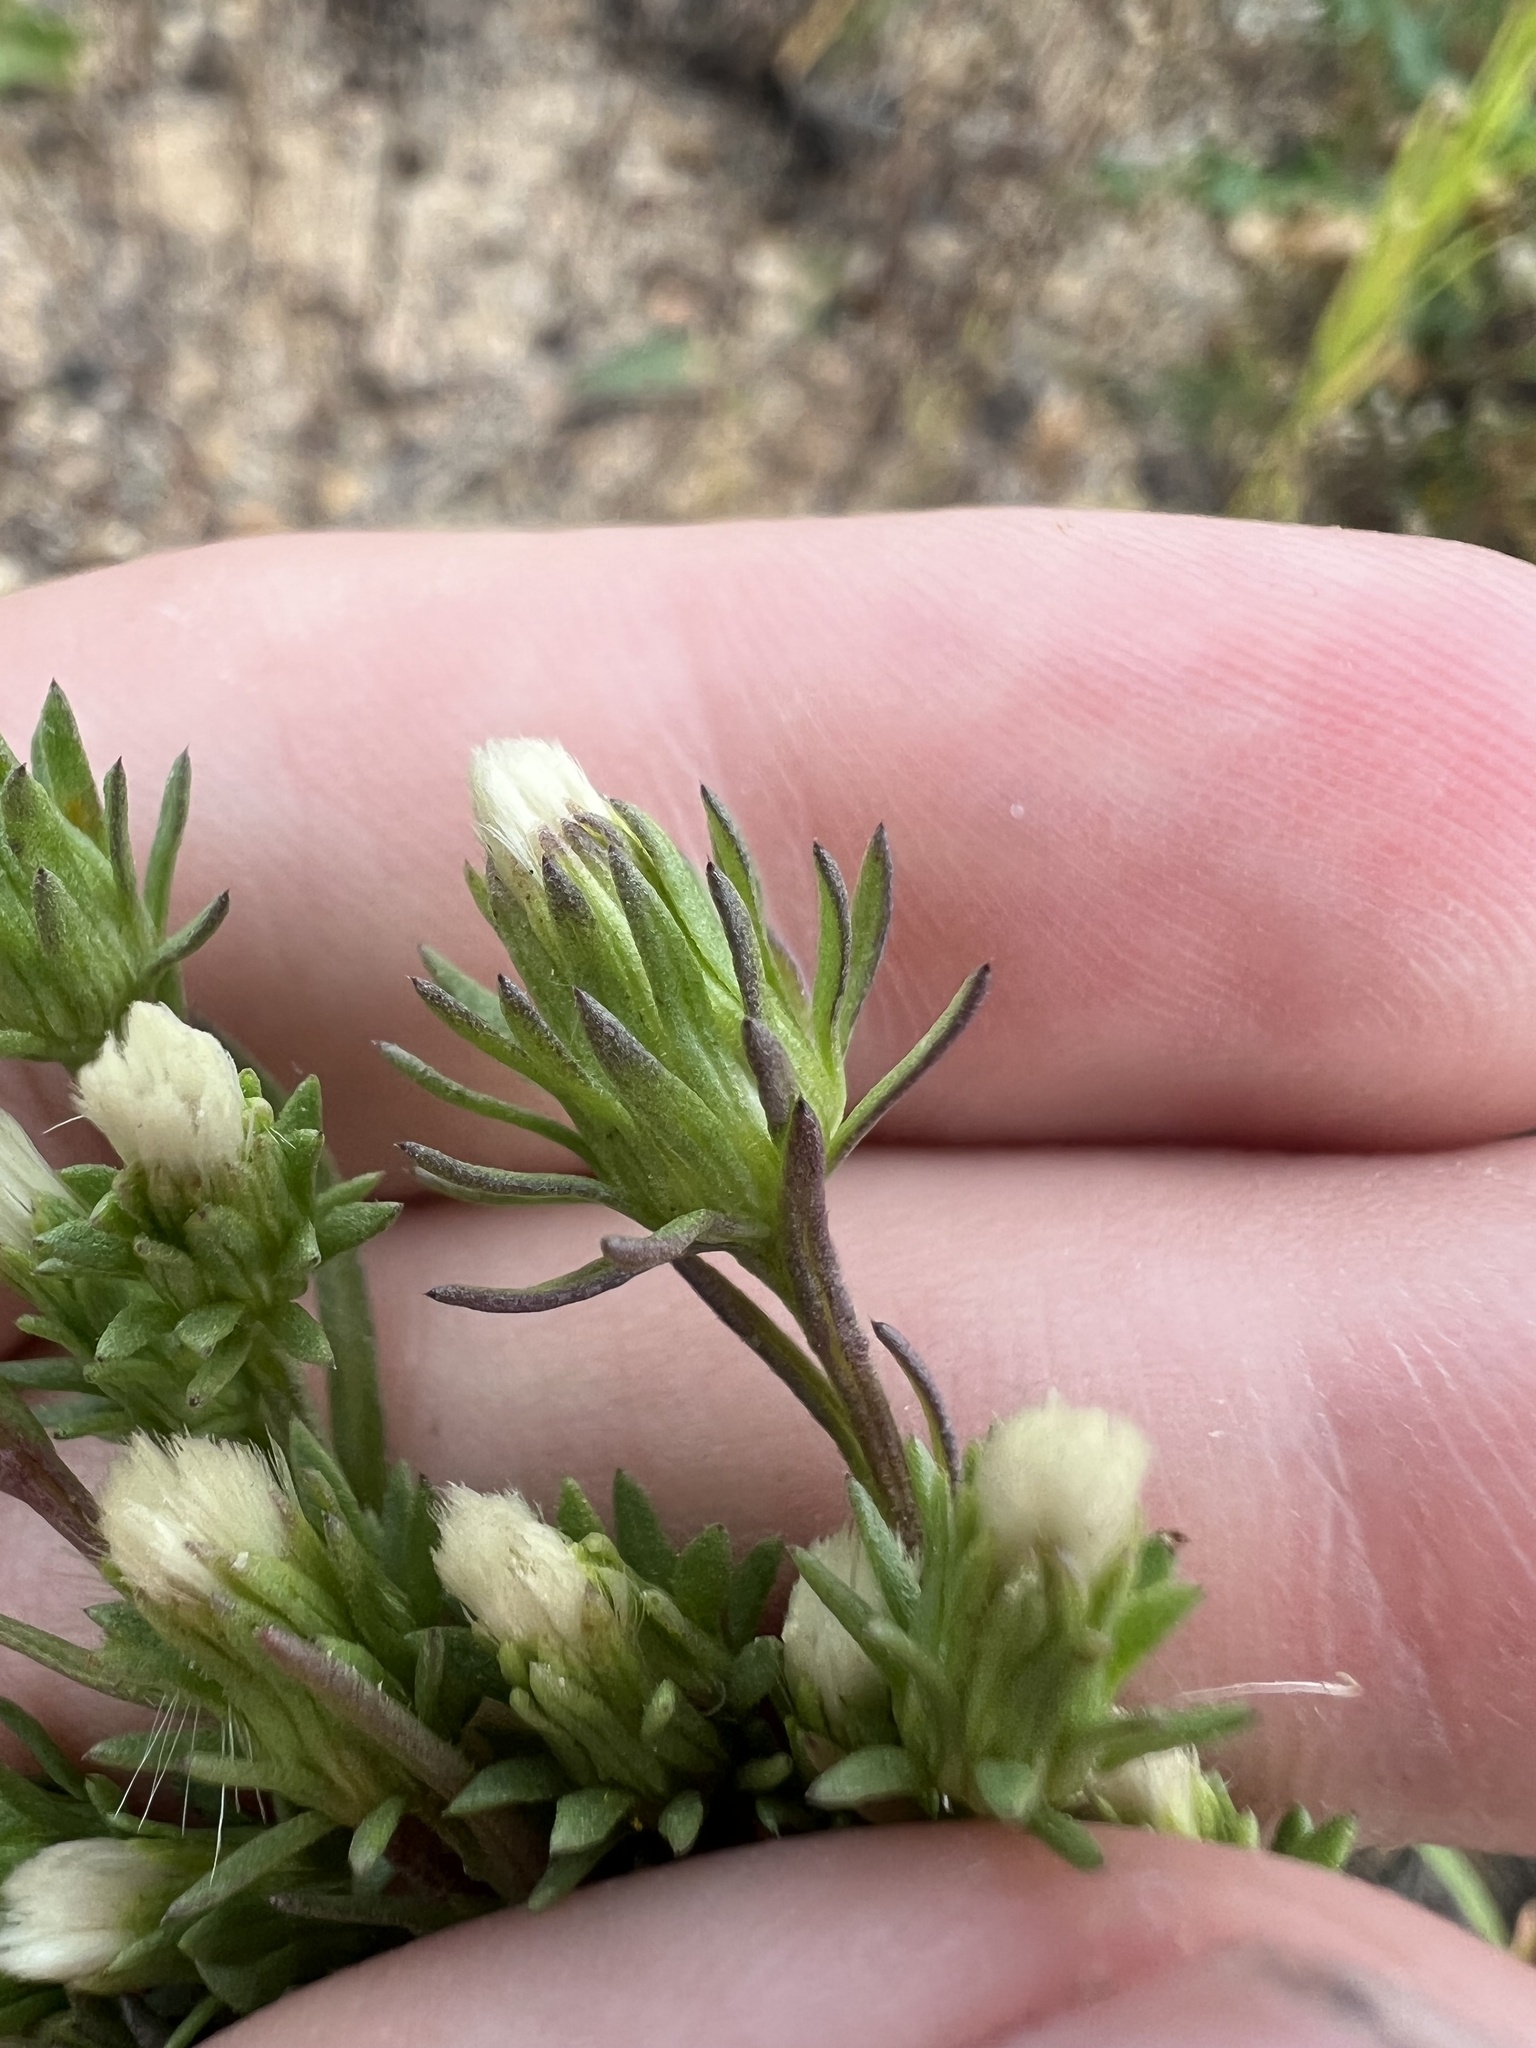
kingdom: Plantae
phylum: Tracheophyta
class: Magnoliopsida
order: Asterales
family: Asteraceae
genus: Symphyotrichum
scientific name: Symphyotrichum ciliatum
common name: Rayless annual aster
